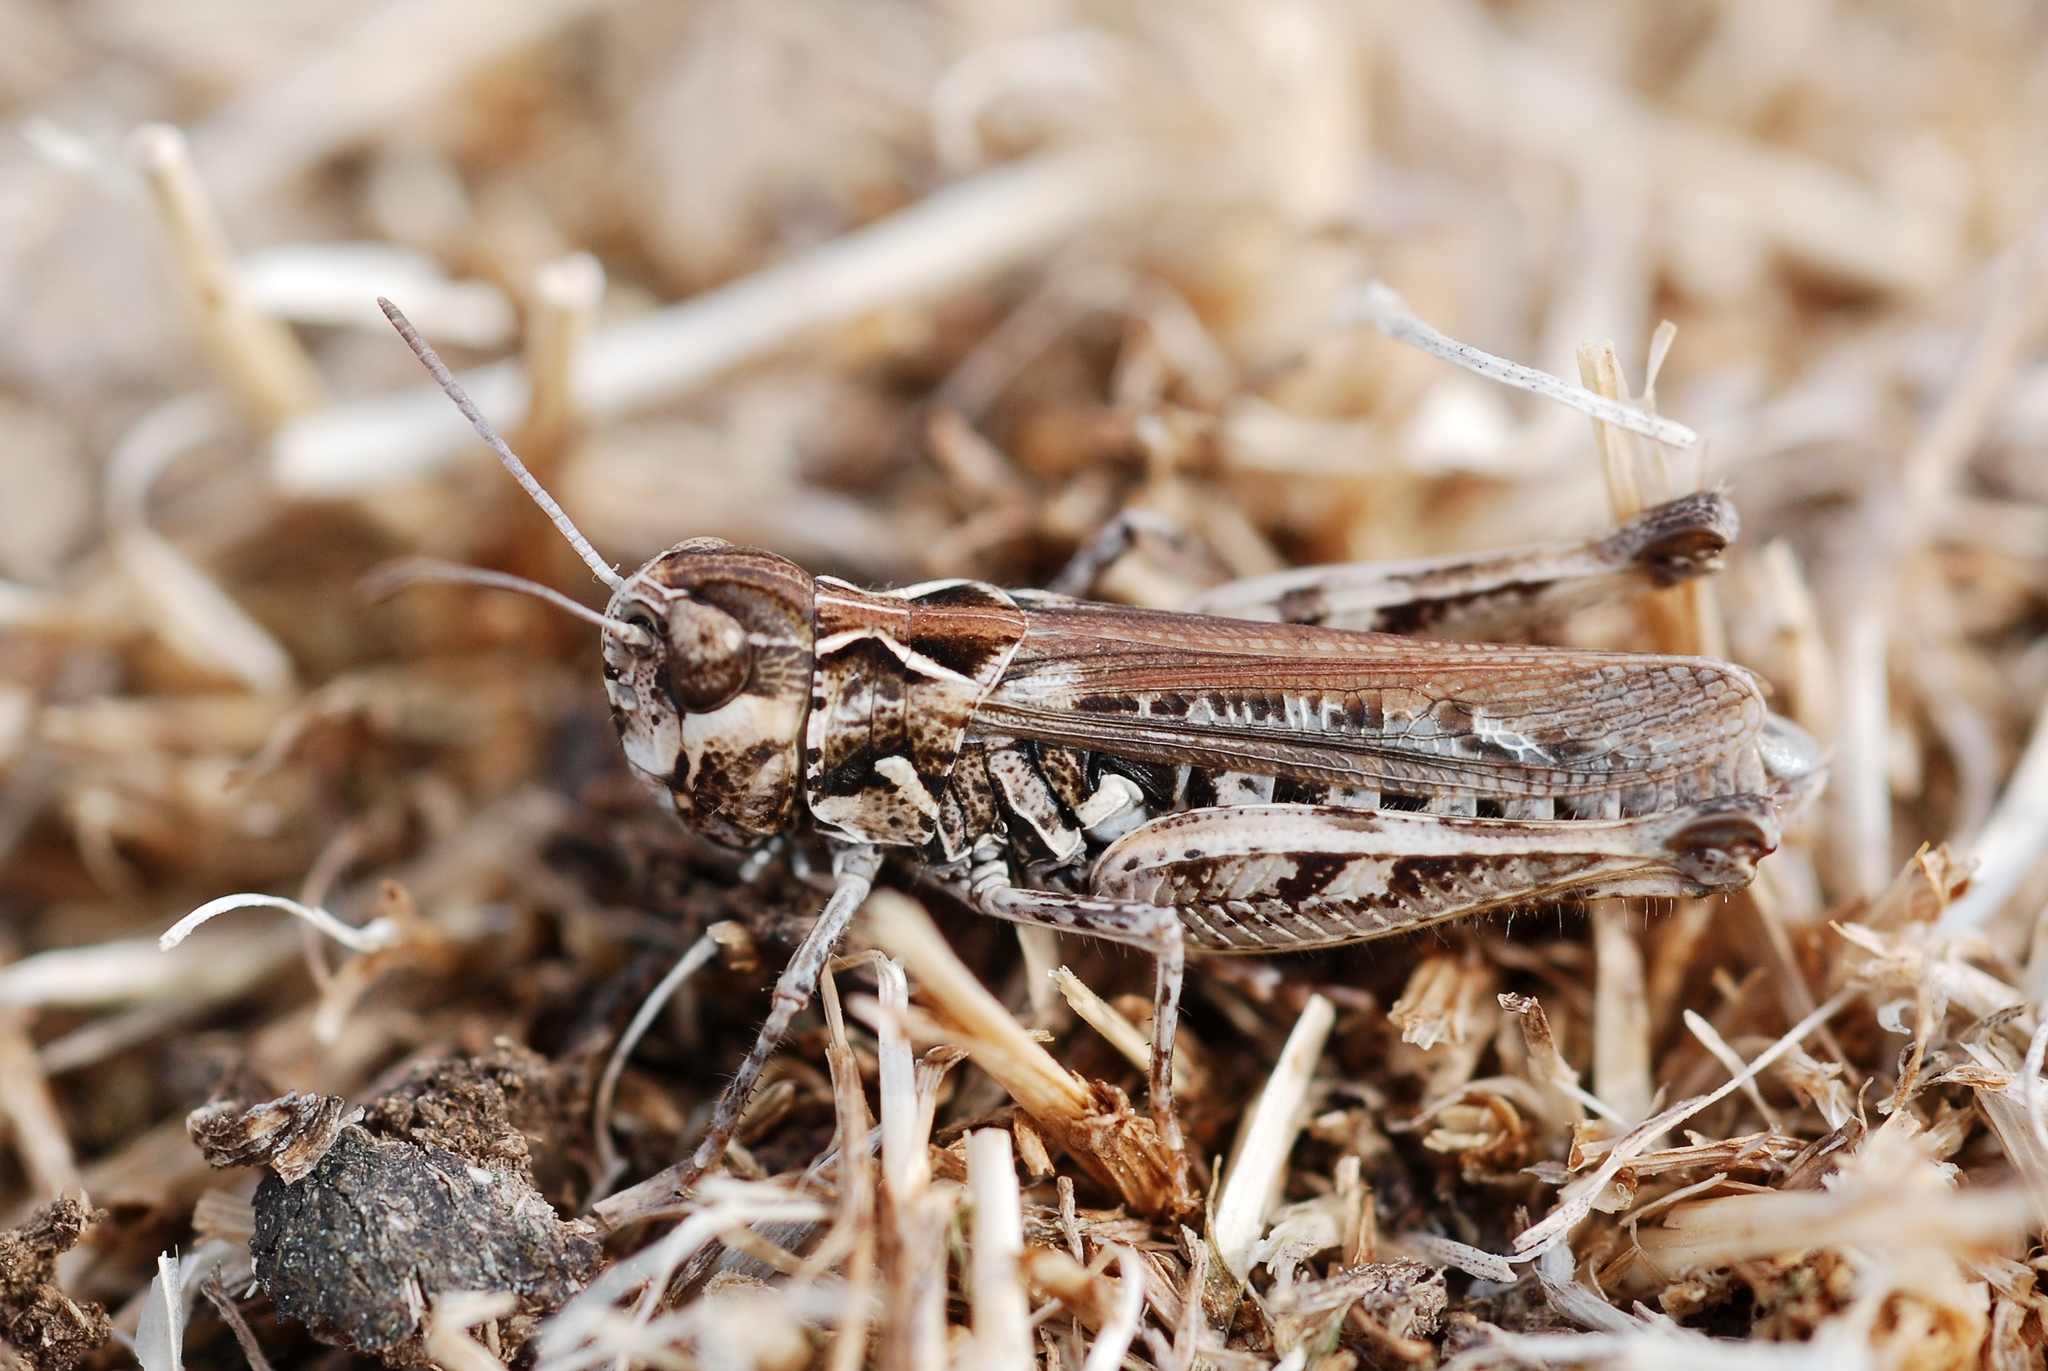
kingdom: Animalia
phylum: Arthropoda
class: Insecta
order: Orthoptera
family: Acrididae
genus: Myrmeleotettix
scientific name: Myrmeleotettix maculatus
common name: Mottled grasshopper
